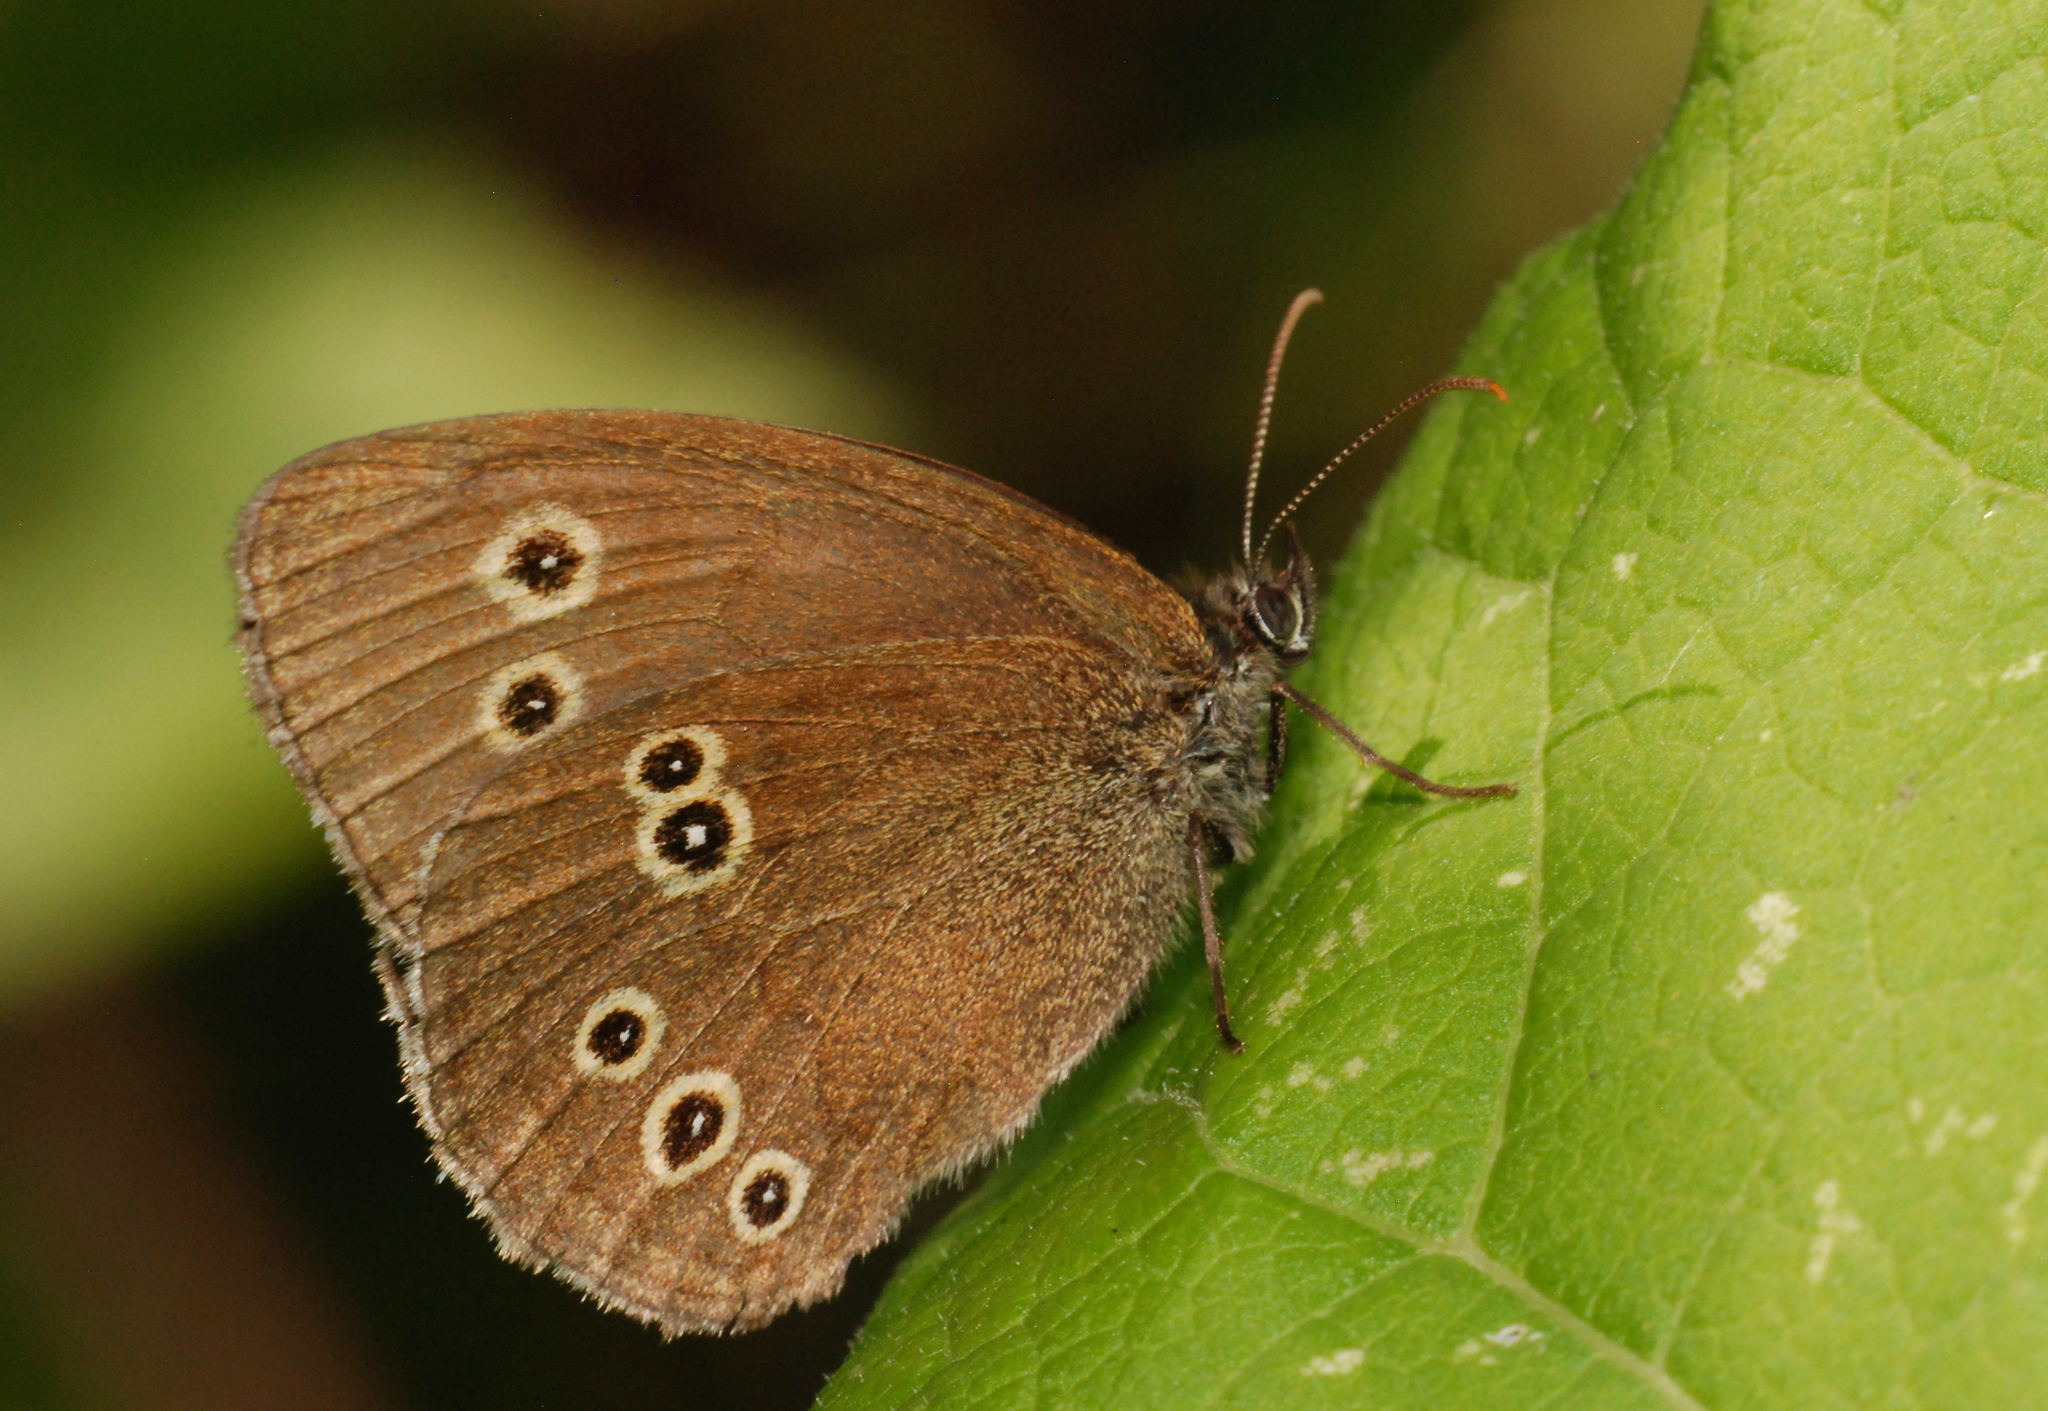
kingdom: Animalia
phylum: Arthropoda
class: Insecta
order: Lepidoptera
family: Nymphalidae
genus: Aphantopus
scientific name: Aphantopus hyperantus
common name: Ringlet
